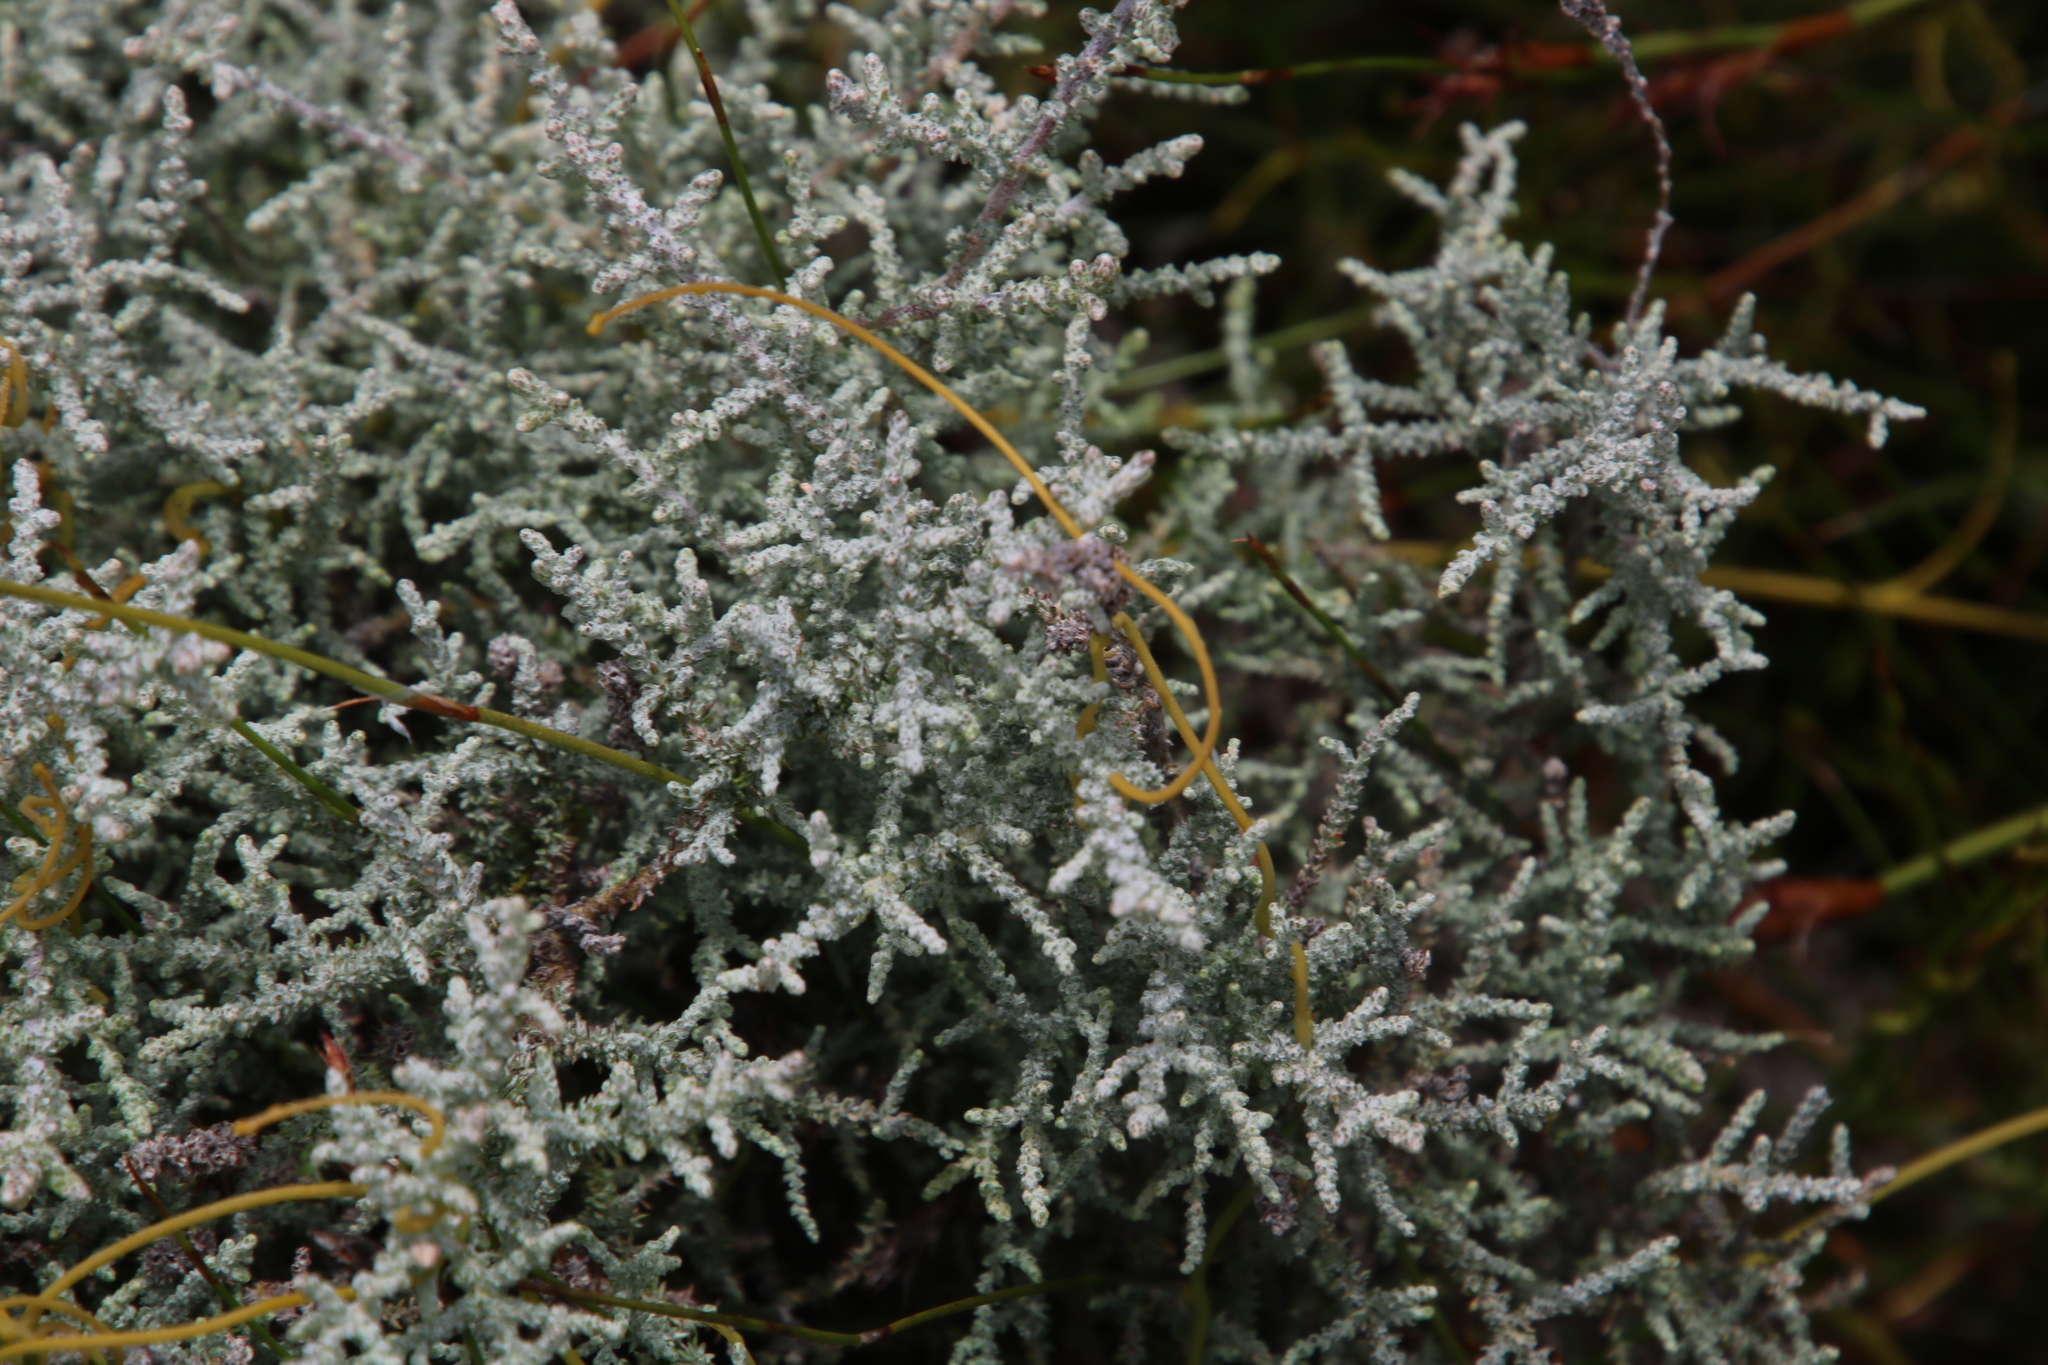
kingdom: Plantae
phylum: Tracheophyta
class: Magnoliopsida
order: Asterales
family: Asteraceae
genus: Seriphium
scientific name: Seriphium plumosum
